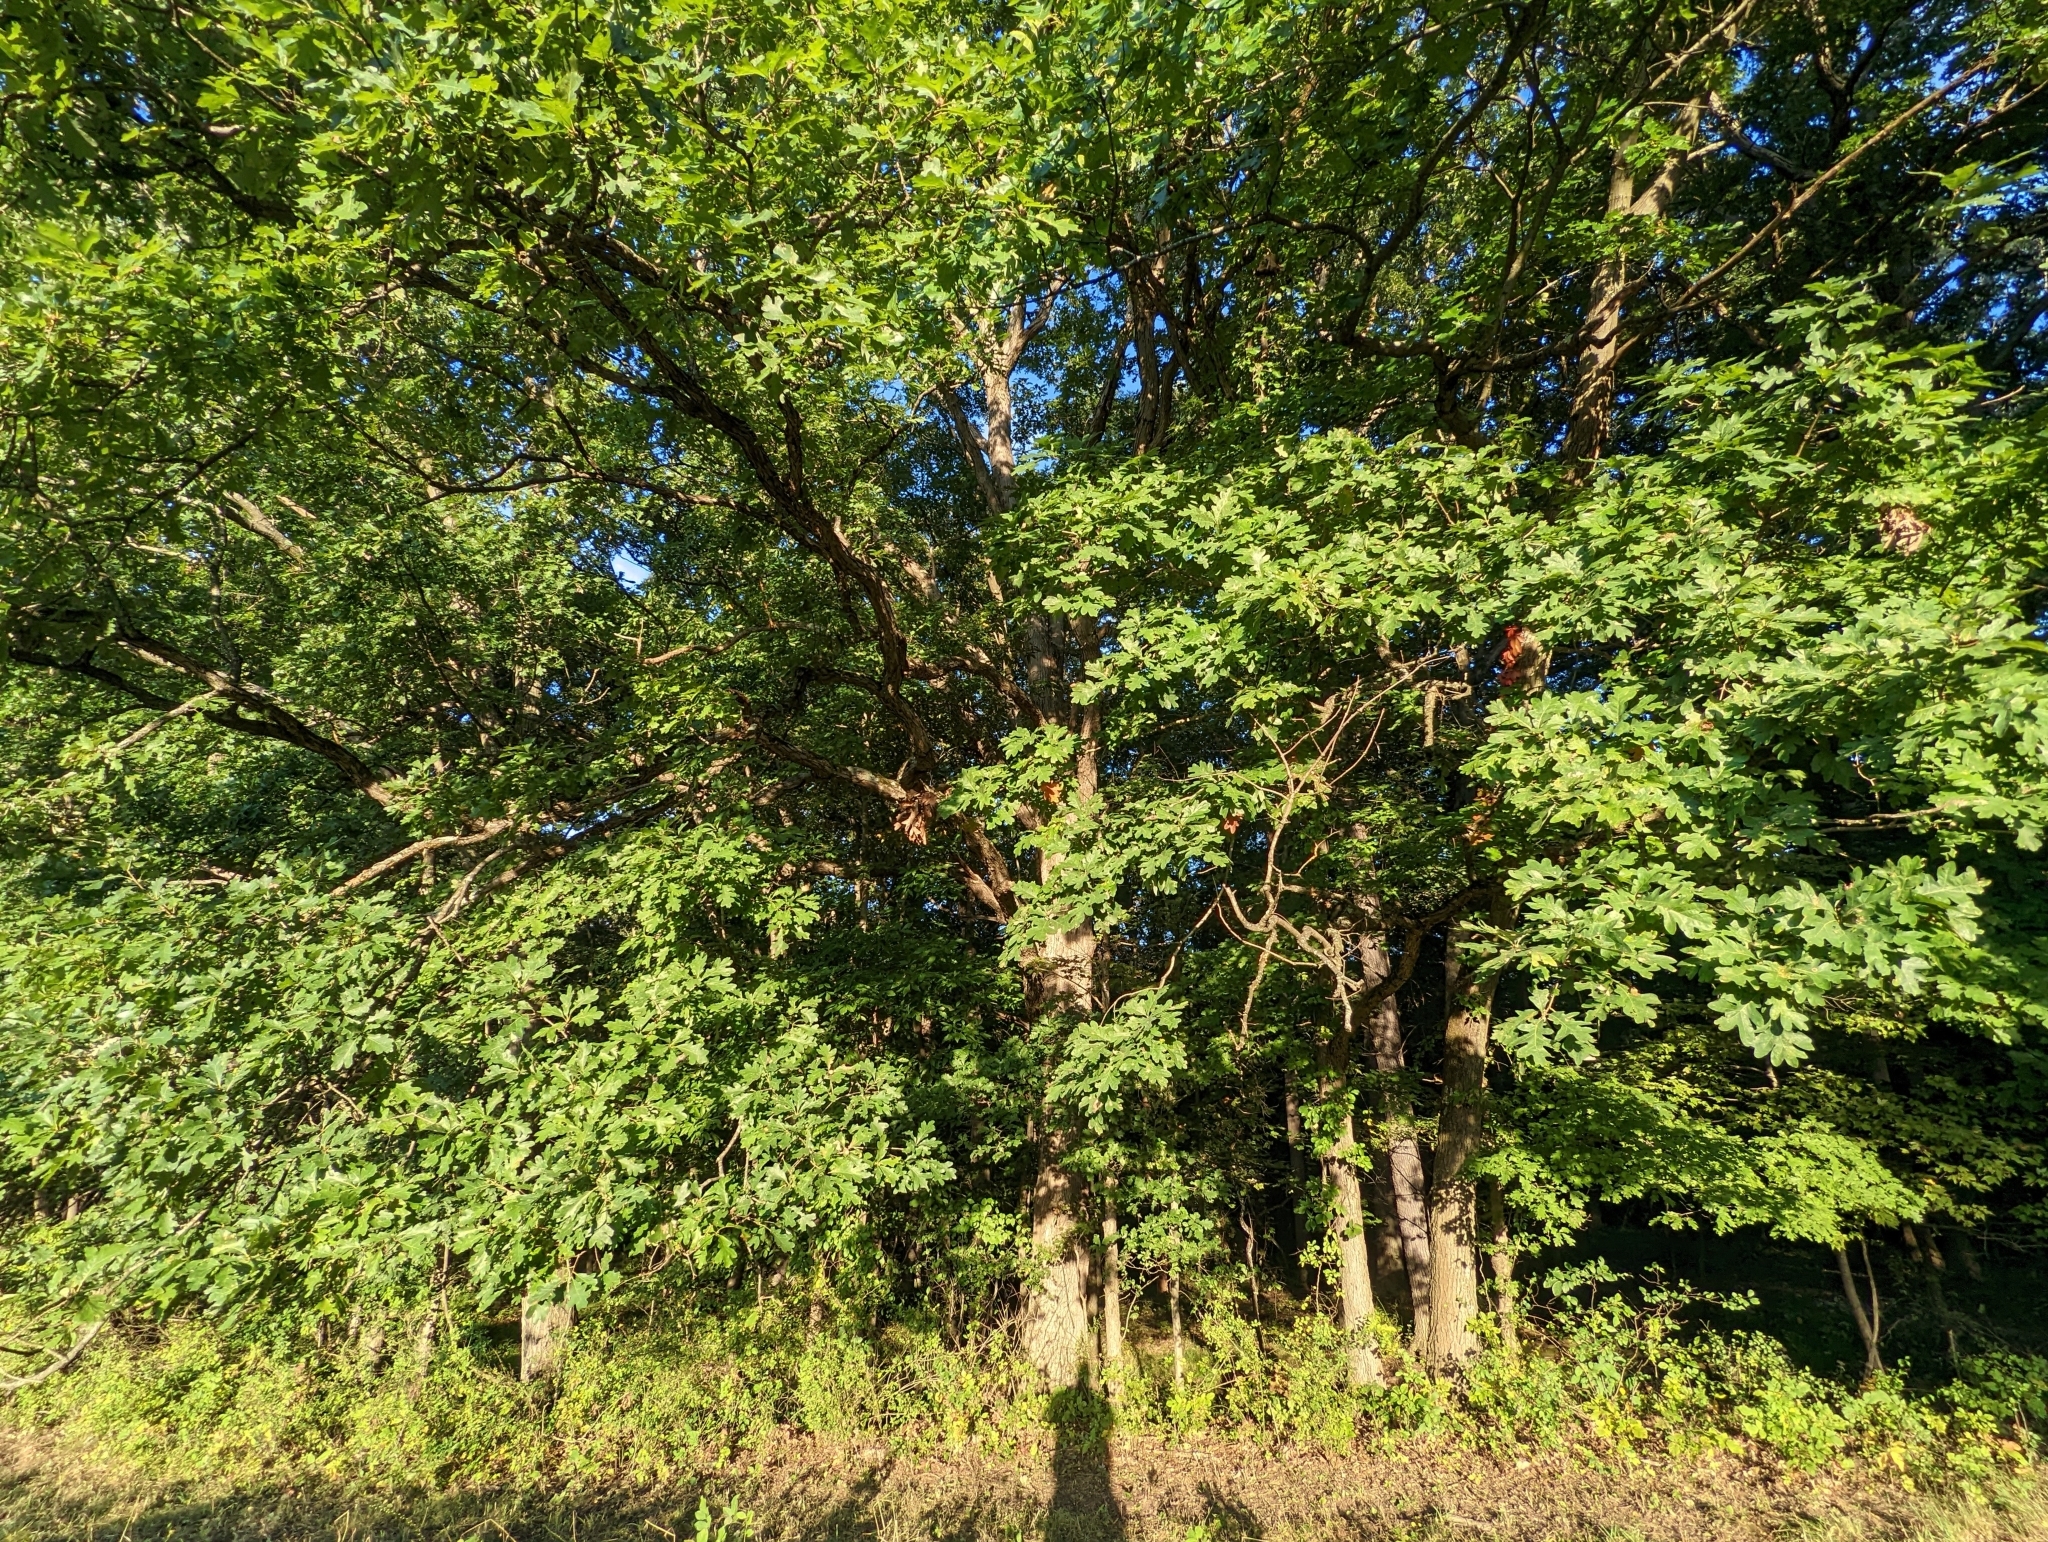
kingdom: Plantae
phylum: Tracheophyta
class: Magnoliopsida
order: Fagales
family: Fagaceae
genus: Quercus
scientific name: Quercus alba
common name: White oak
